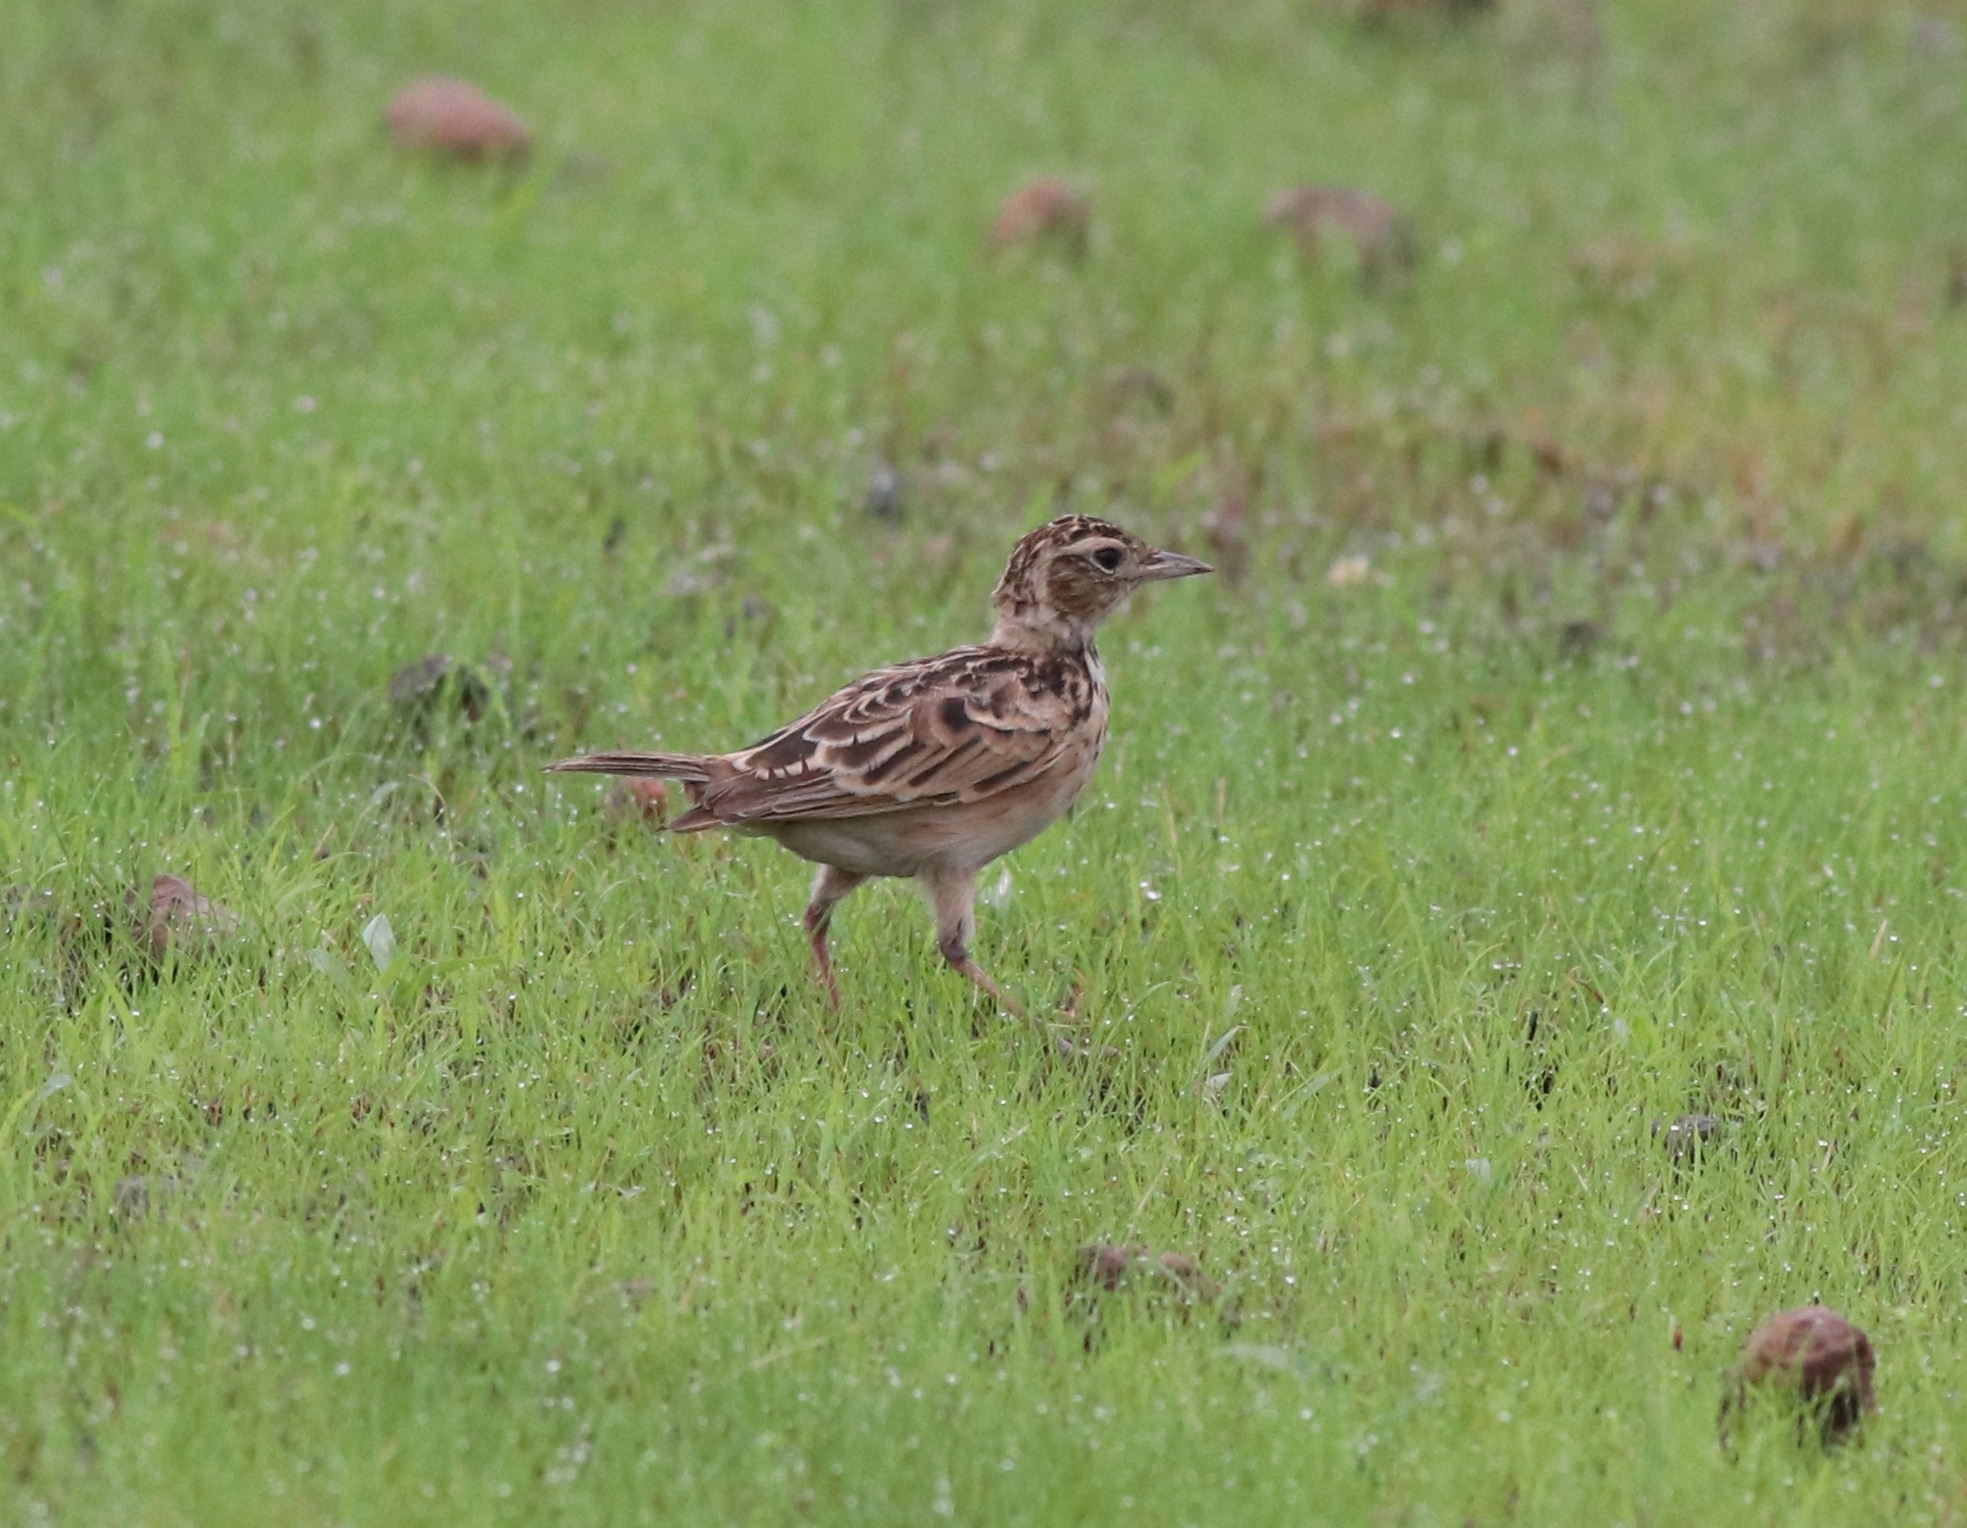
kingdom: Animalia
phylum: Chordata
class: Aves
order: Passeriformes
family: Alaudidae
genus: Alauda
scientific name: Alauda gulgula
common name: Oriental skylark
